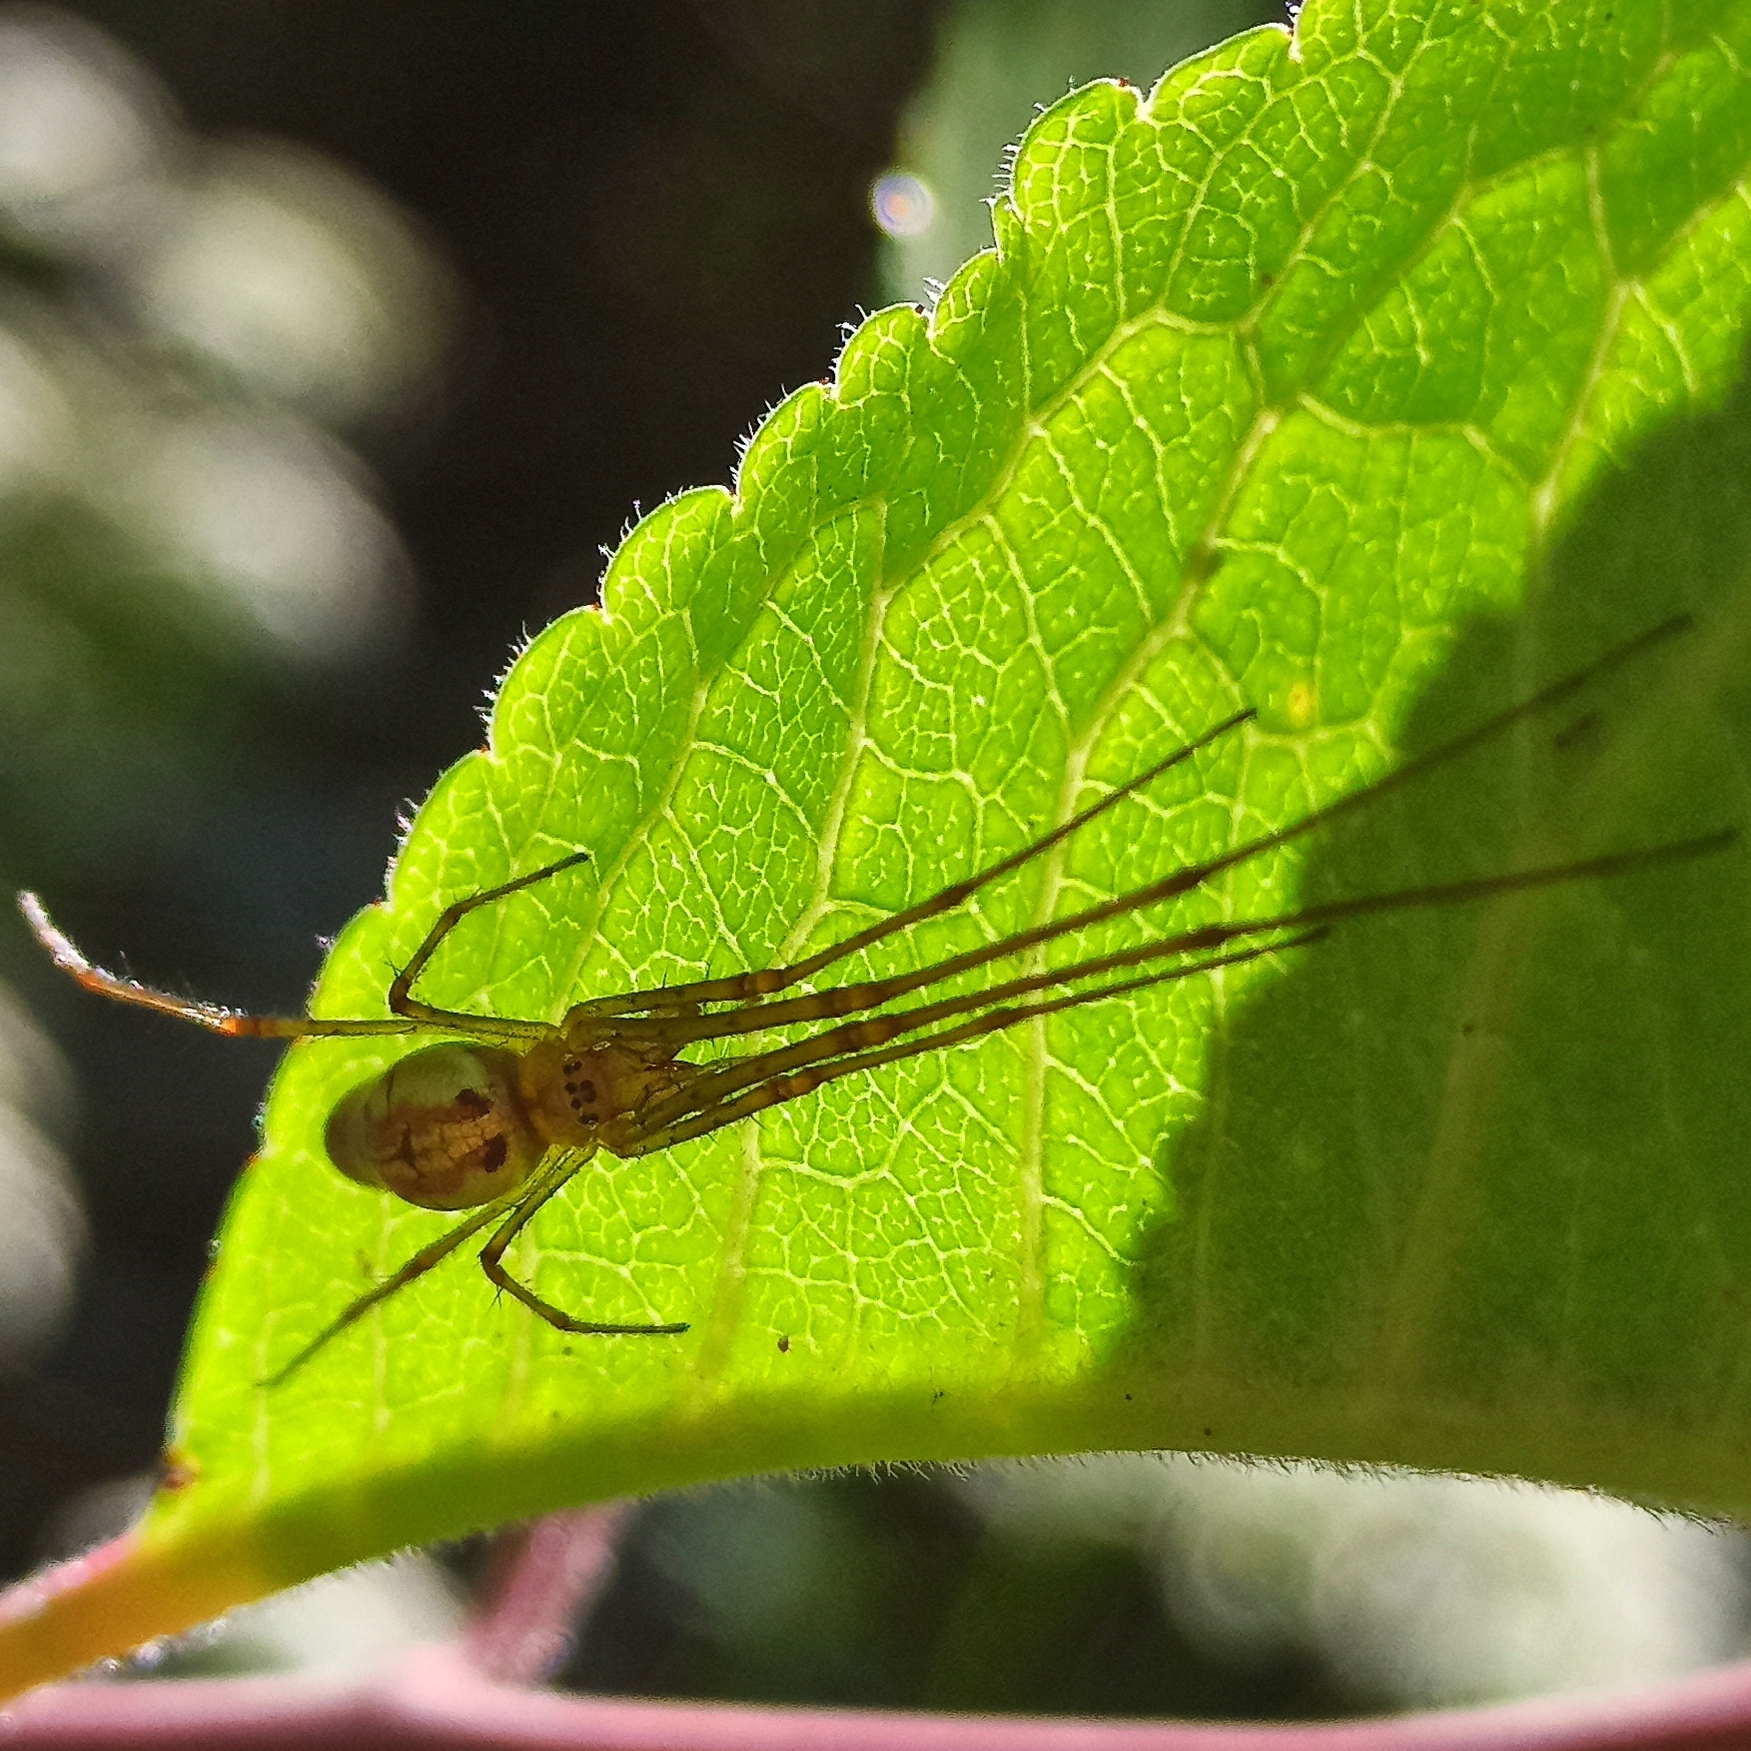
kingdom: Animalia
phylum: Arthropoda
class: Arachnida
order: Araneae
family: Tetragnathidae
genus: Tetragnatha
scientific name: Tetragnatha extensa
